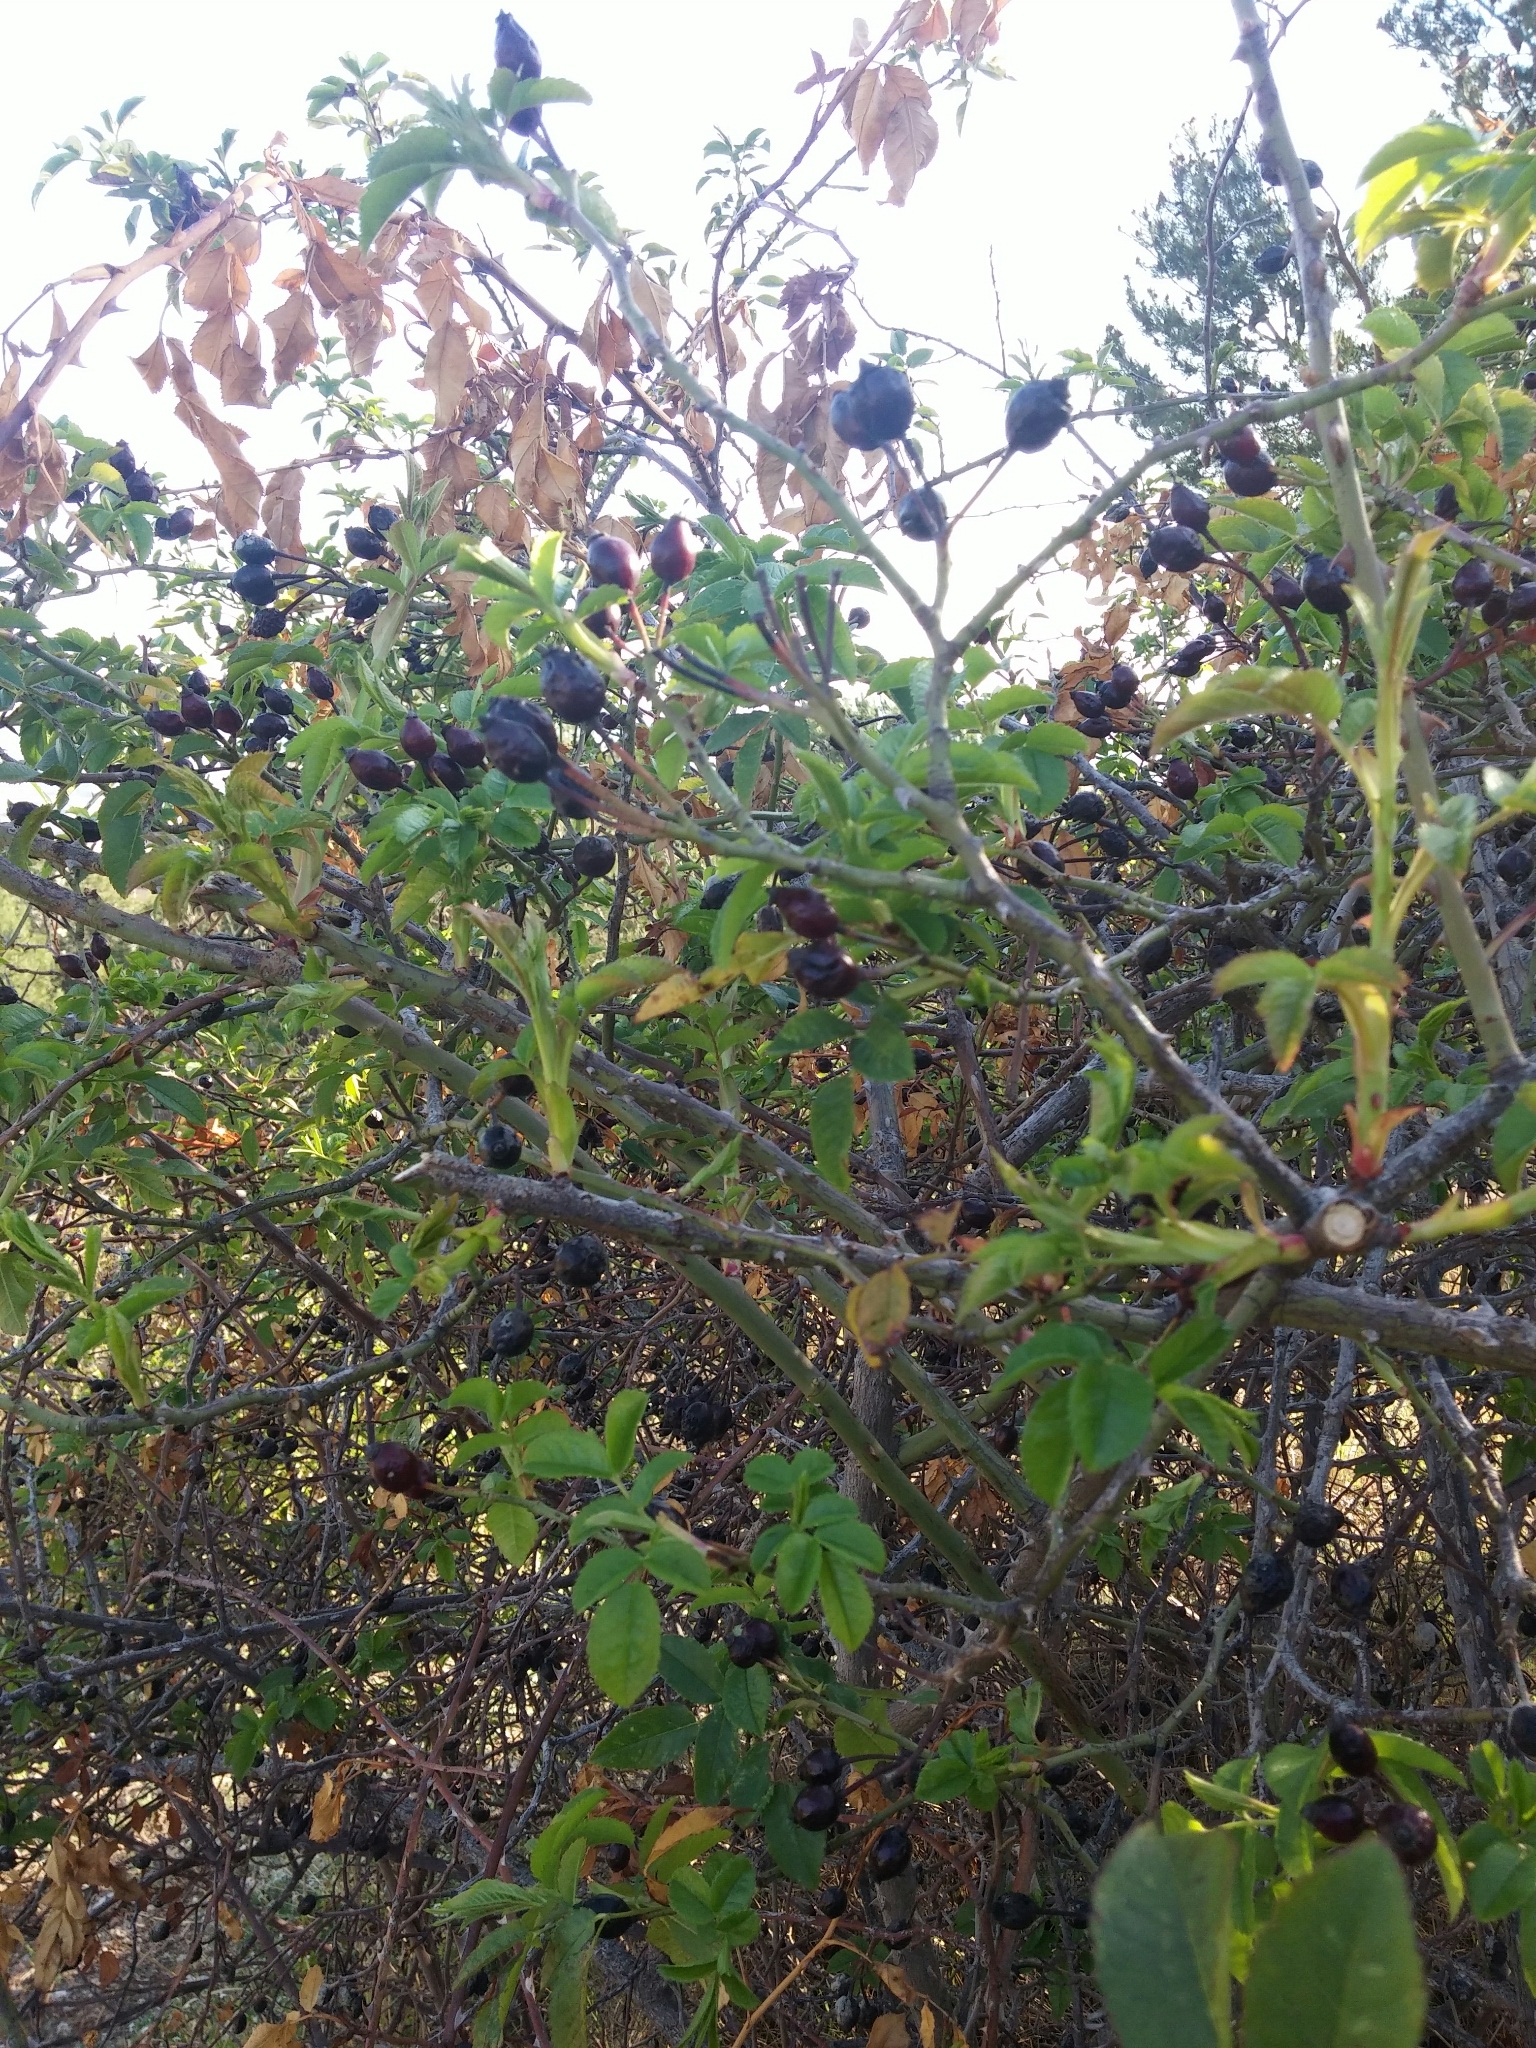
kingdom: Plantae
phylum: Tracheophyta
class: Magnoliopsida
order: Rosales
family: Rosaceae
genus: Rosa
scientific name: Rosa canina
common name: Dog rose
